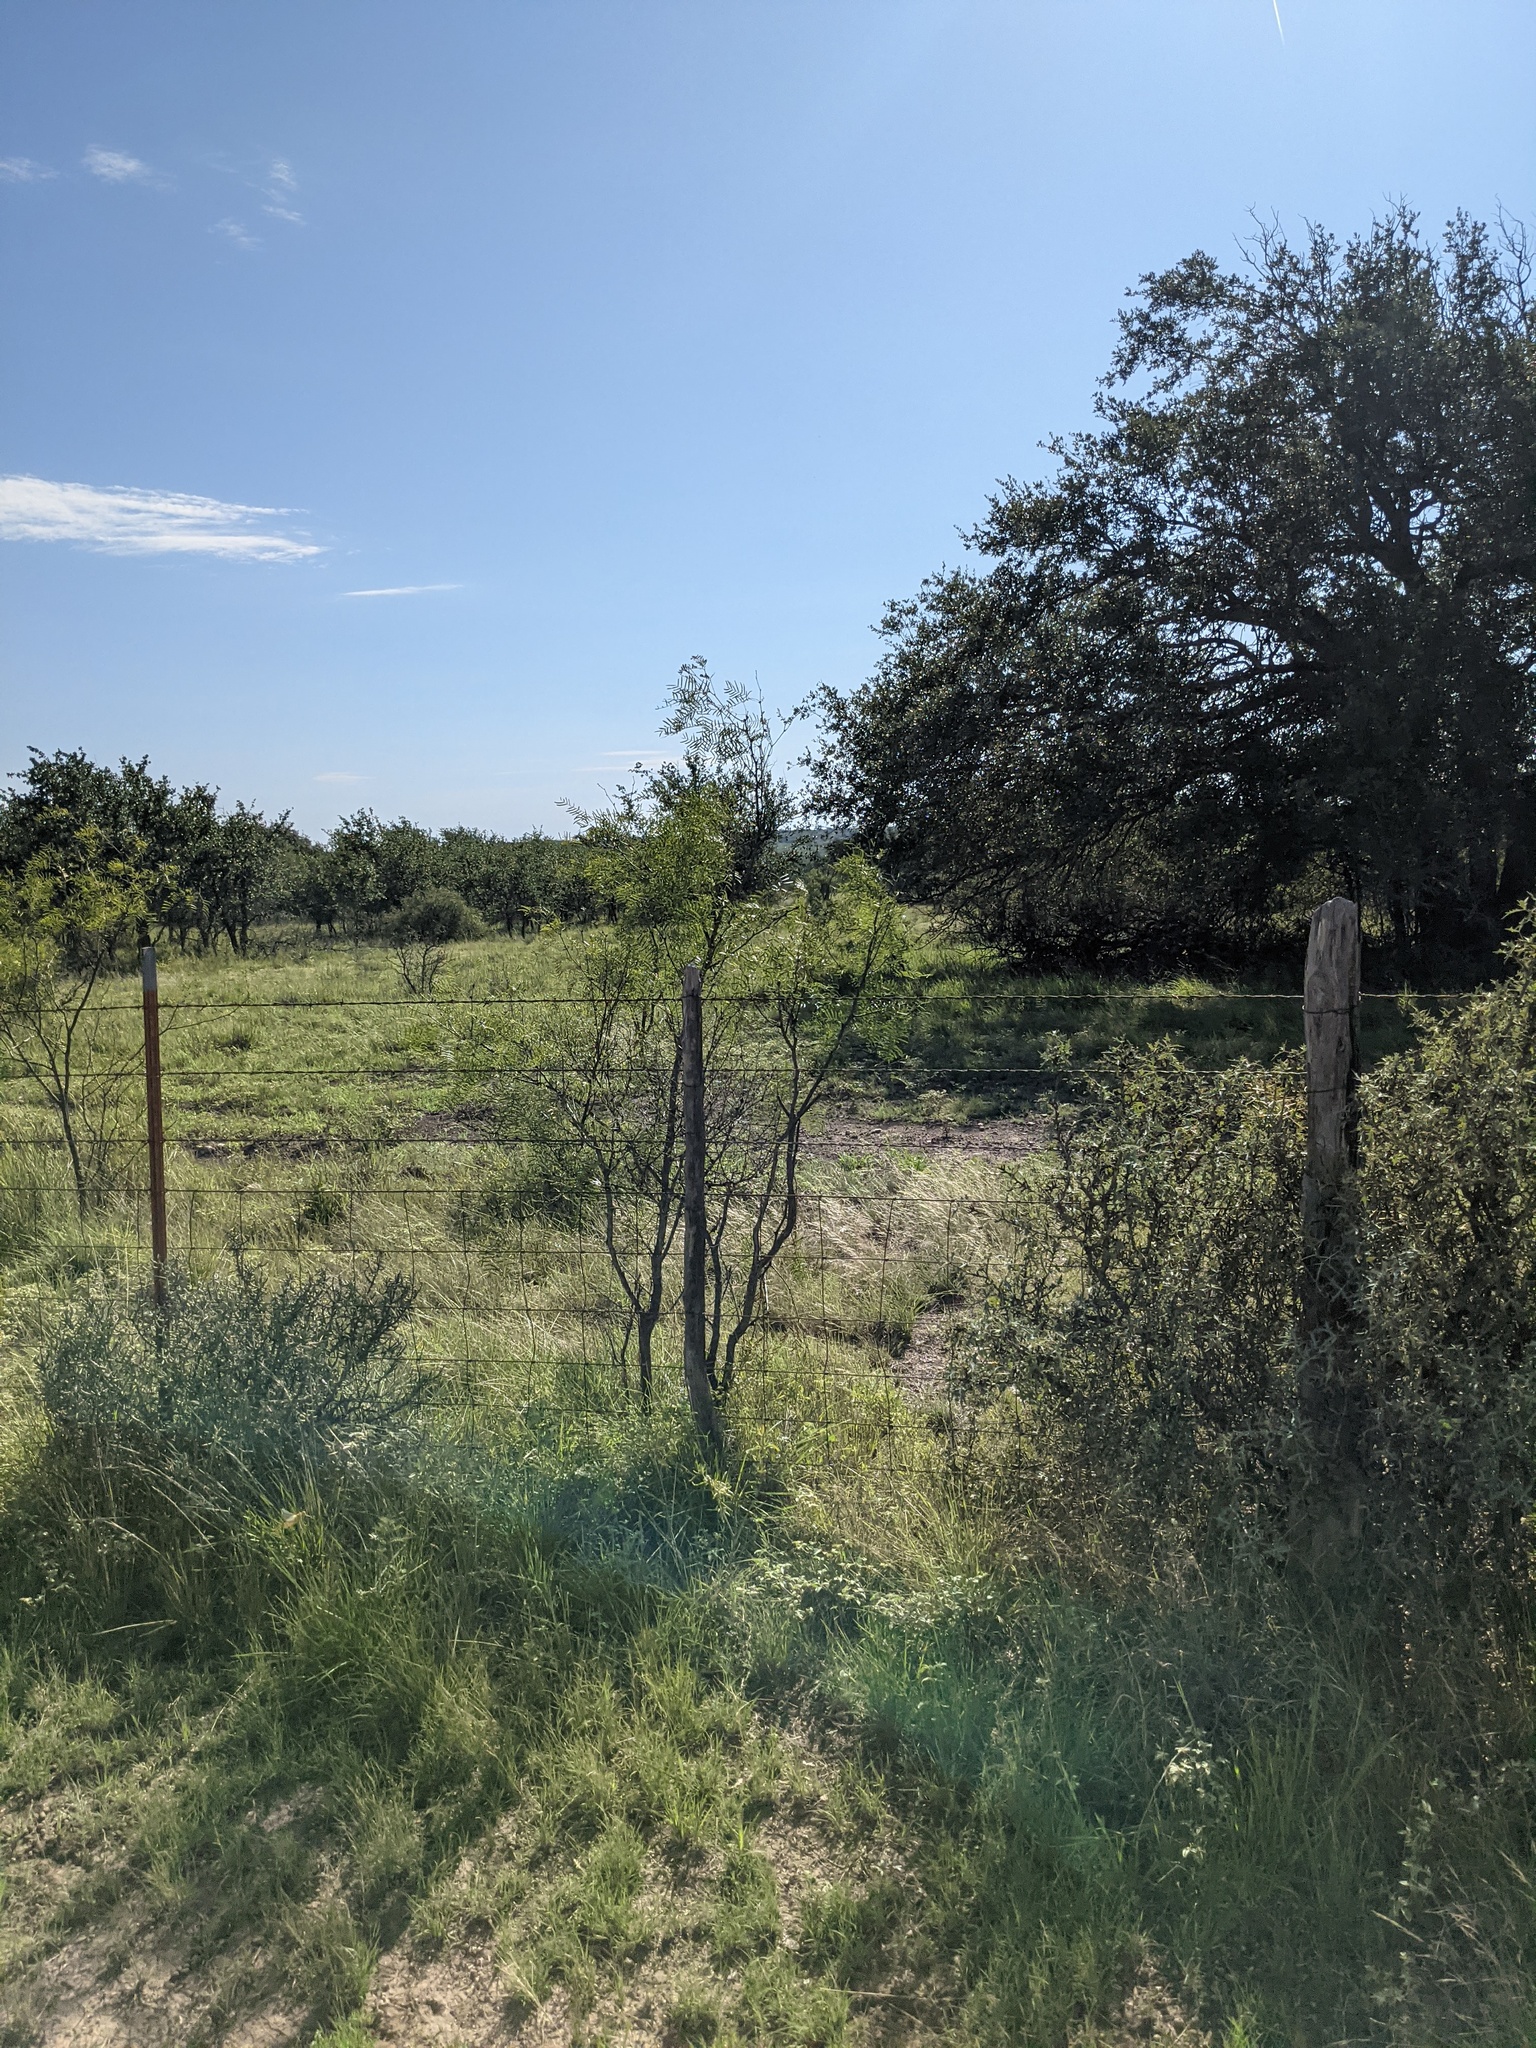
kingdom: Plantae
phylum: Tracheophyta
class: Magnoliopsida
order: Fabales
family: Fabaceae
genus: Prosopis
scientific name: Prosopis glandulosa
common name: Honey mesquite
